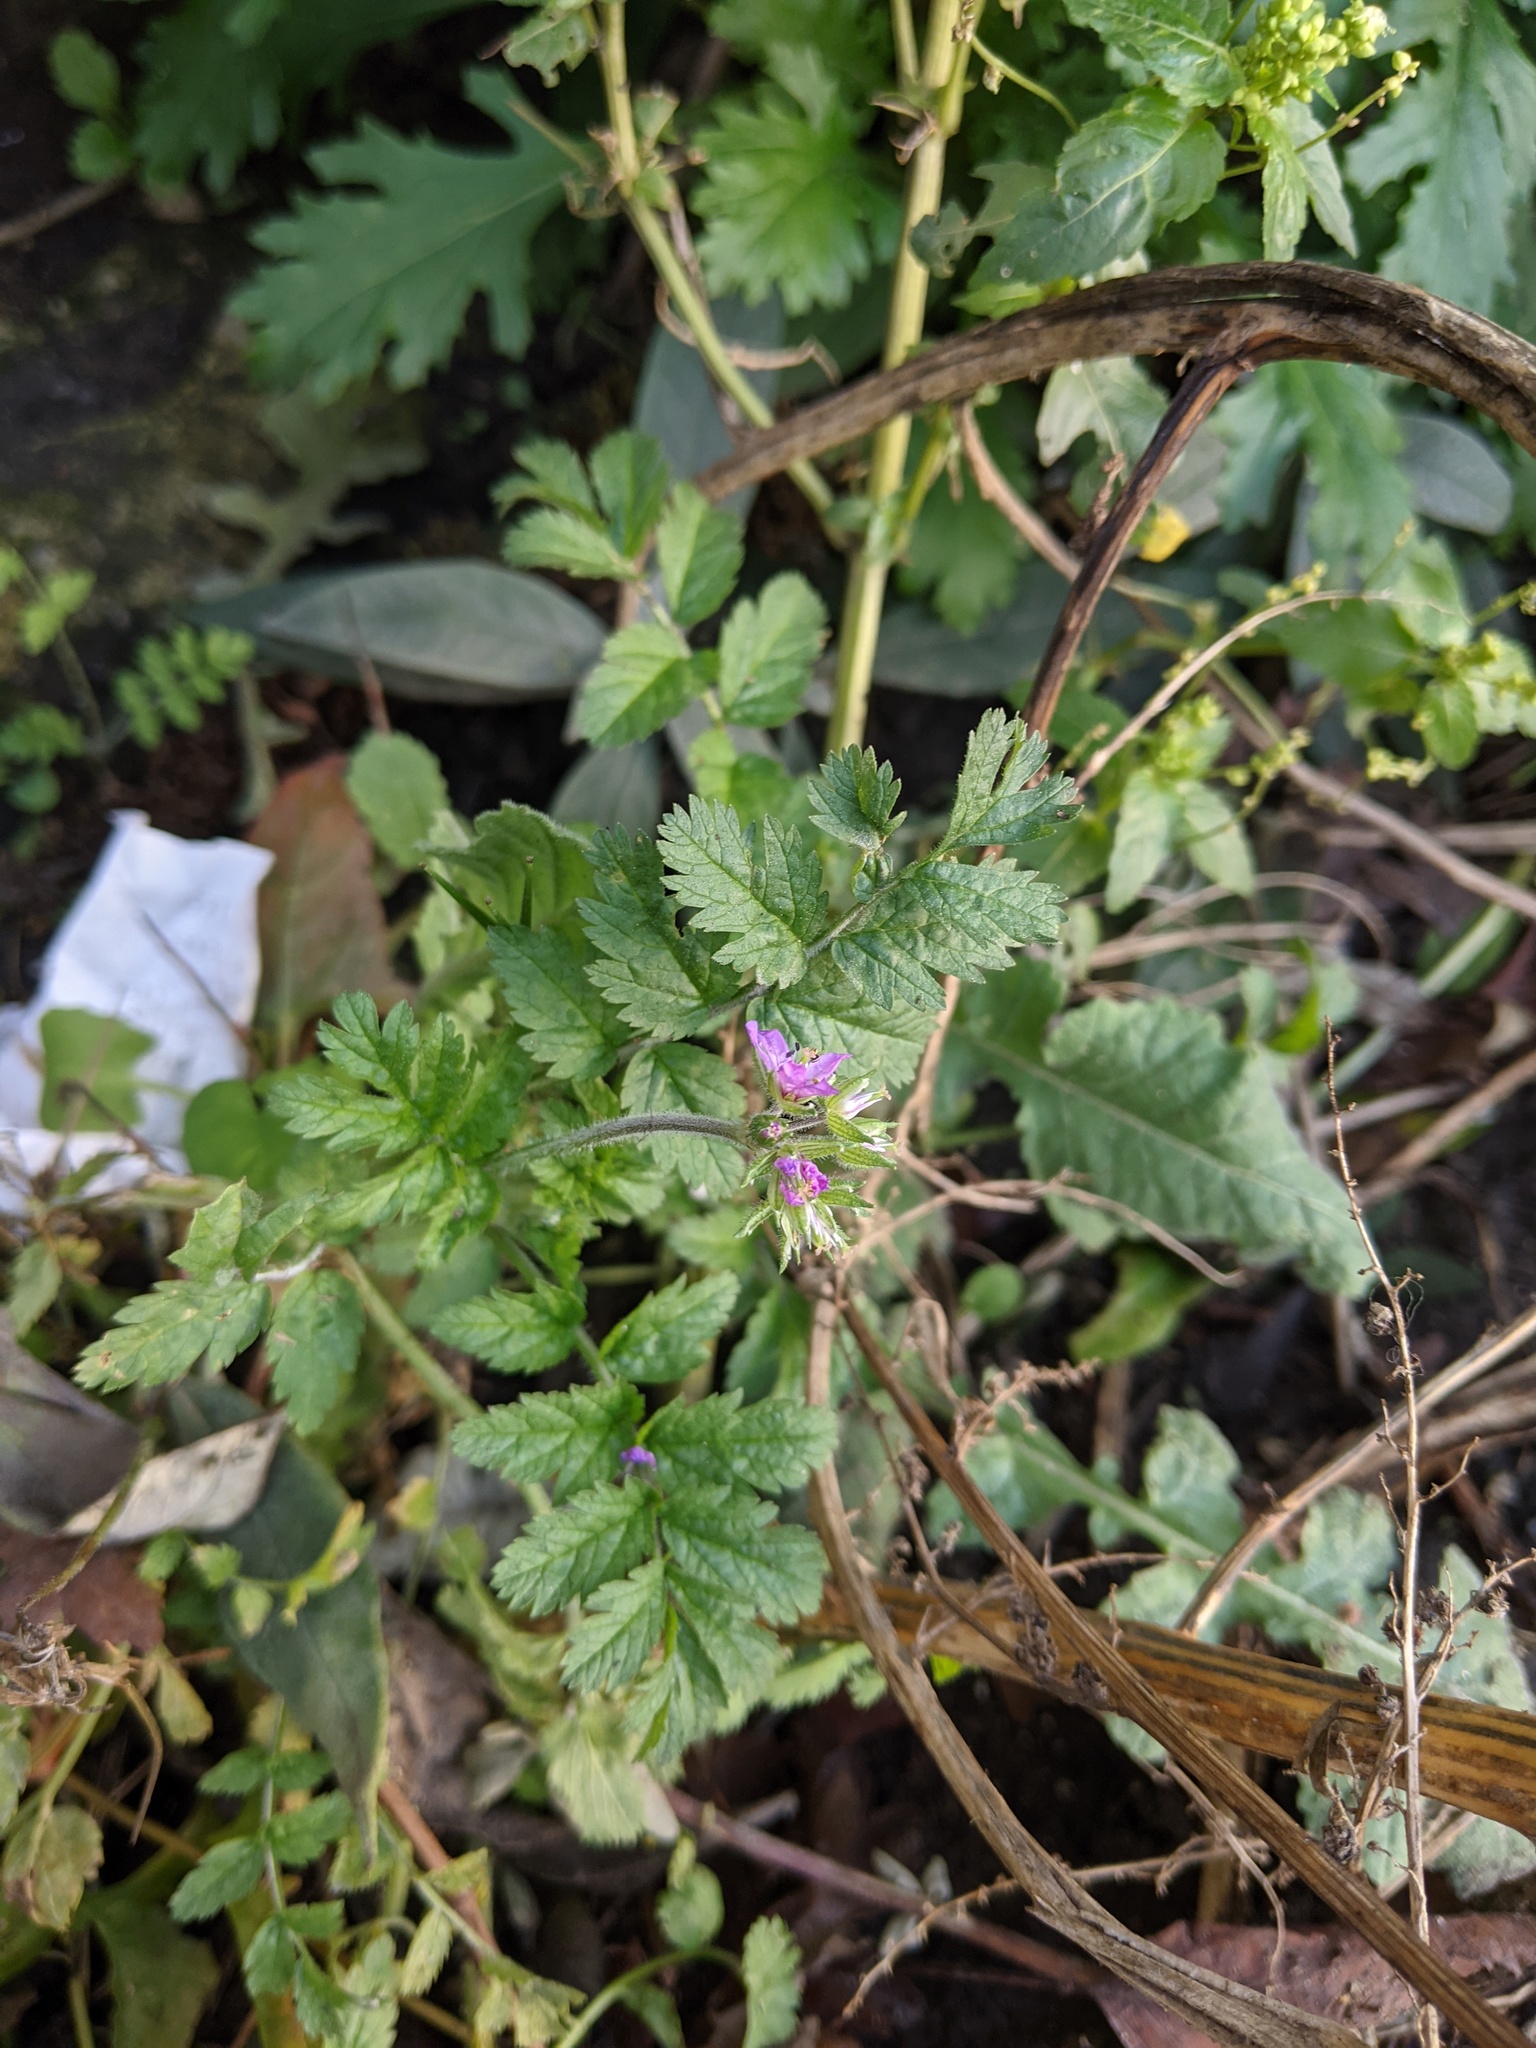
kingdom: Plantae
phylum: Tracheophyta
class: Magnoliopsida
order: Geraniales
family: Geraniaceae
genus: Erodium
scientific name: Erodium moschatum
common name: Musk stork's-bill
